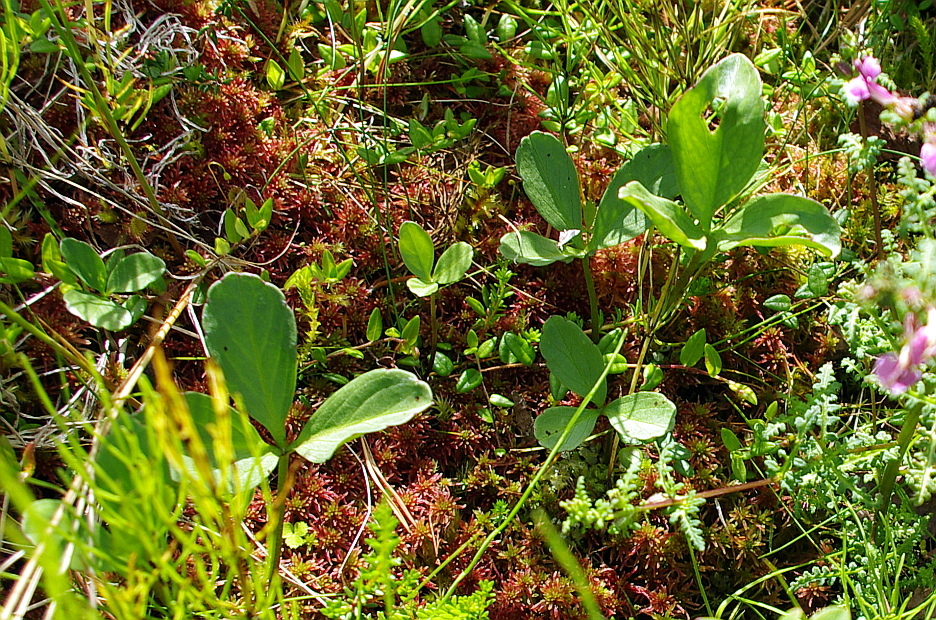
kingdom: Plantae
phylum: Tracheophyta
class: Magnoliopsida
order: Asterales
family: Menyanthaceae
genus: Menyanthes
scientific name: Menyanthes trifoliata
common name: Bogbean
